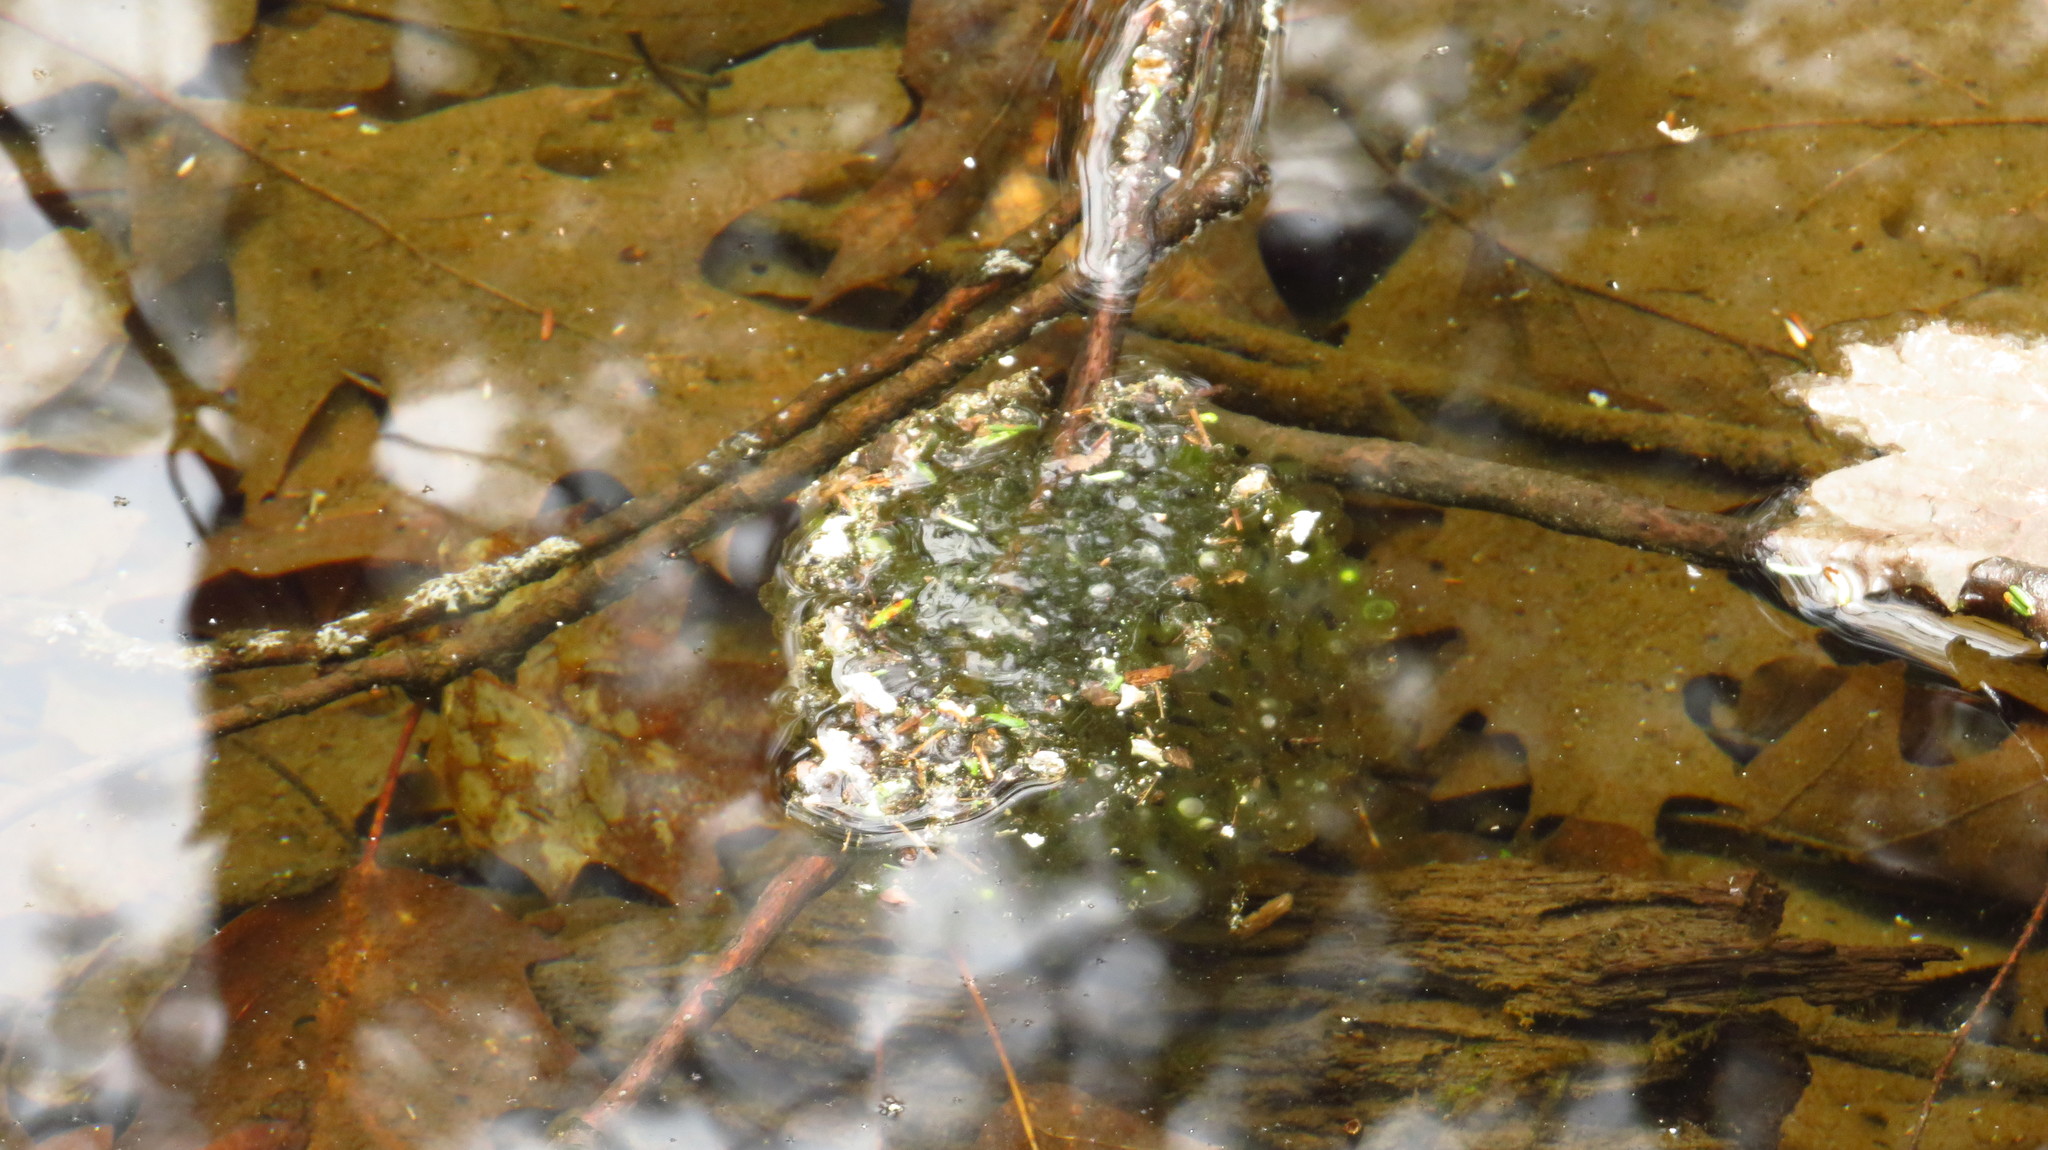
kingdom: Animalia
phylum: Chordata
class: Amphibia
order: Anura
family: Ranidae
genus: Lithobates
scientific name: Lithobates sylvaticus
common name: Wood frog
